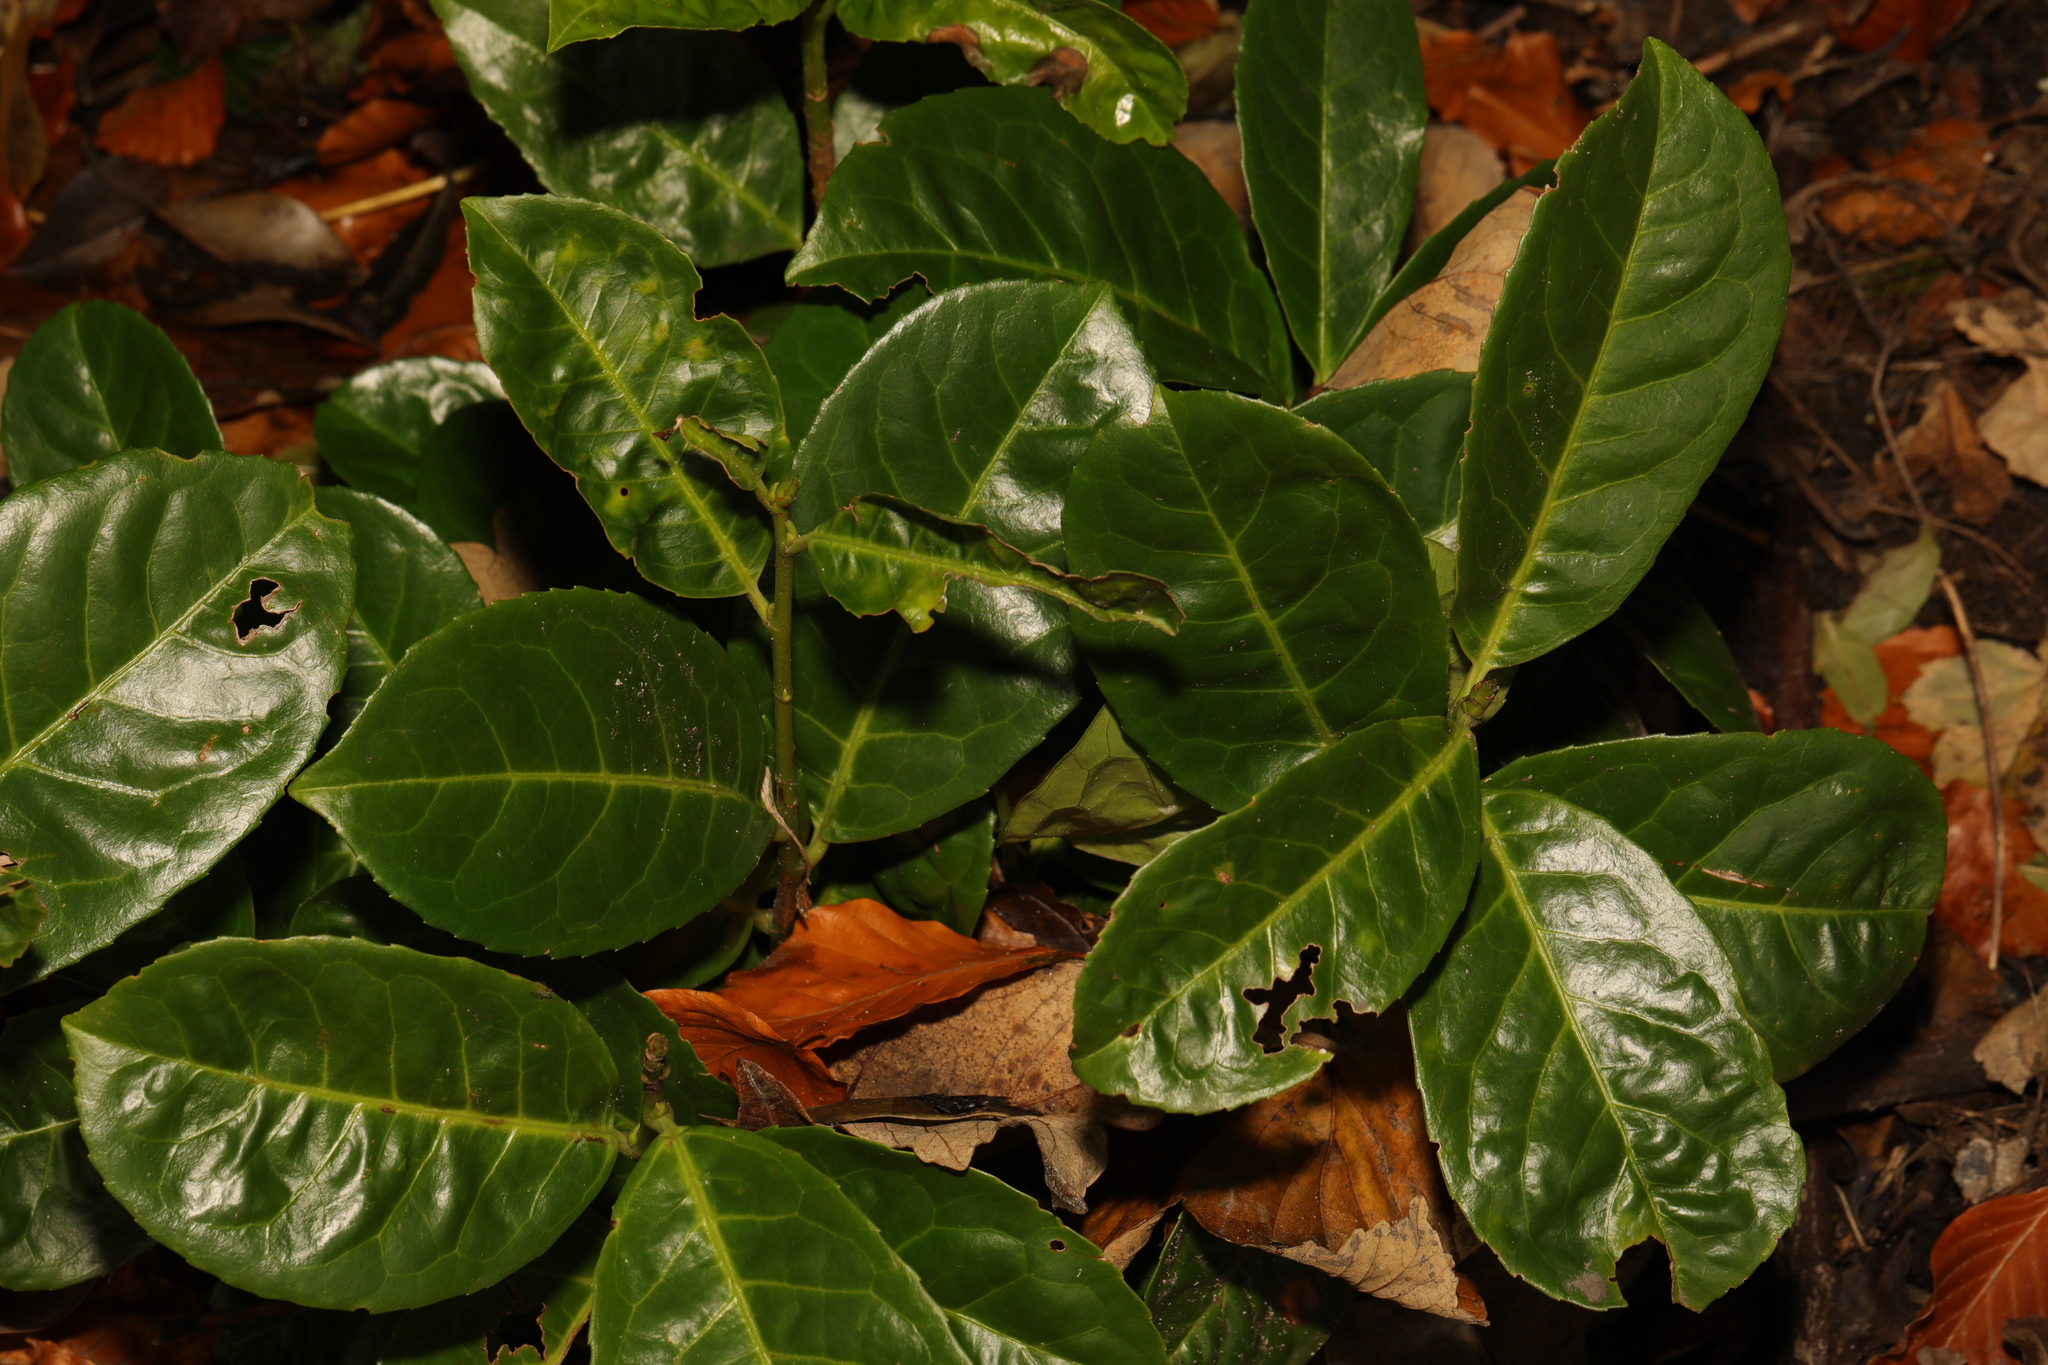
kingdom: Plantae
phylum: Tracheophyta
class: Magnoliopsida
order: Rosales
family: Rosaceae
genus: Prunus
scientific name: Prunus laurocerasus
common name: Cherry laurel
